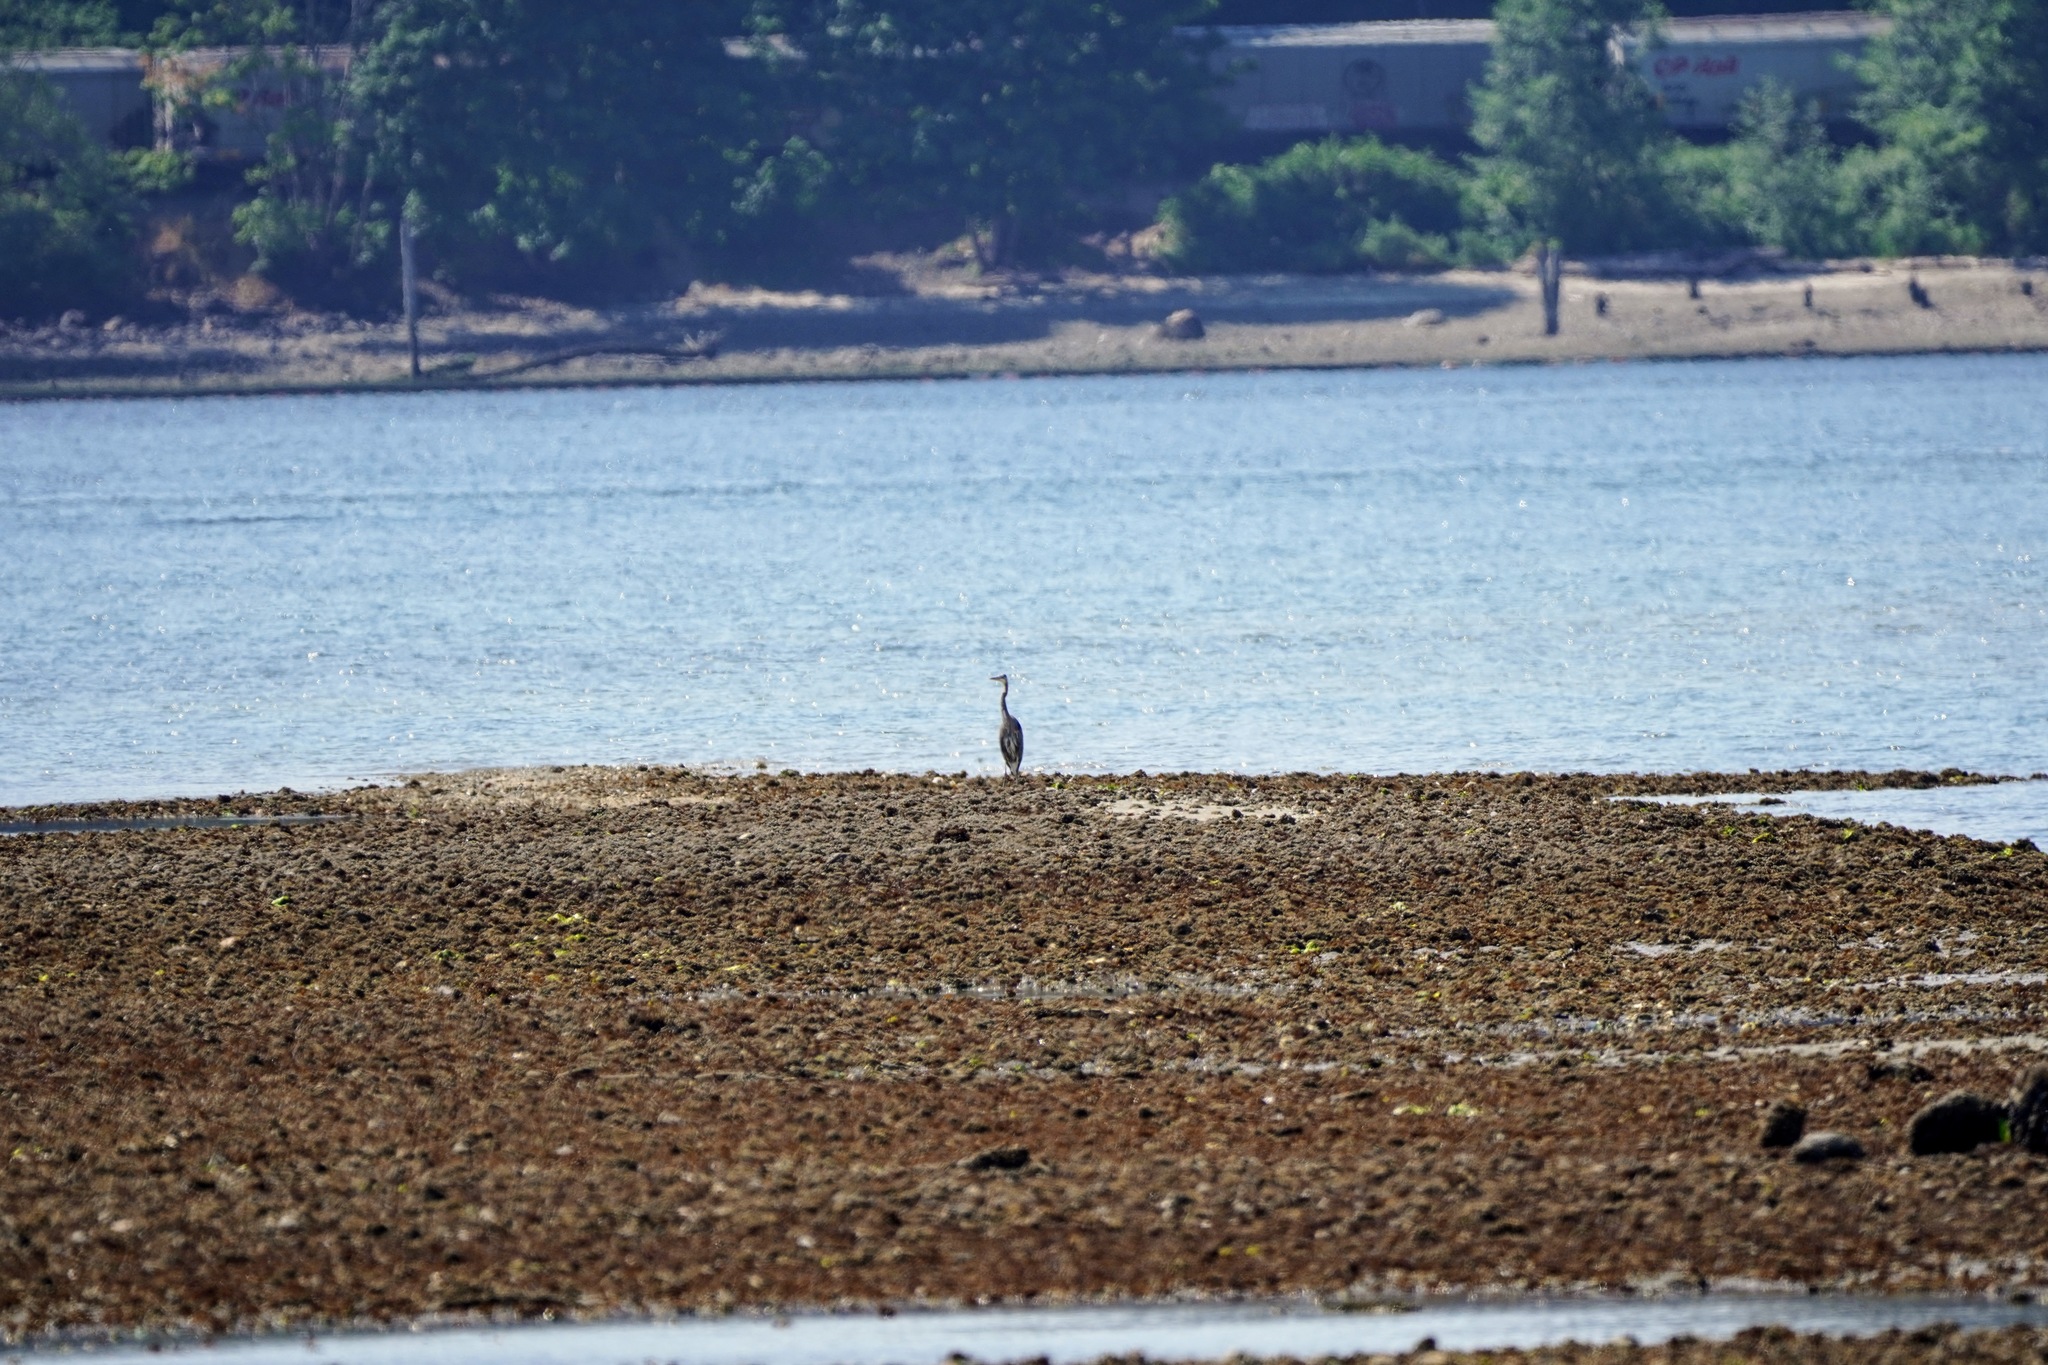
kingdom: Animalia
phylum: Chordata
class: Aves
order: Pelecaniformes
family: Ardeidae
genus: Ardea
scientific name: Ardea herodias
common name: Great blue heron
